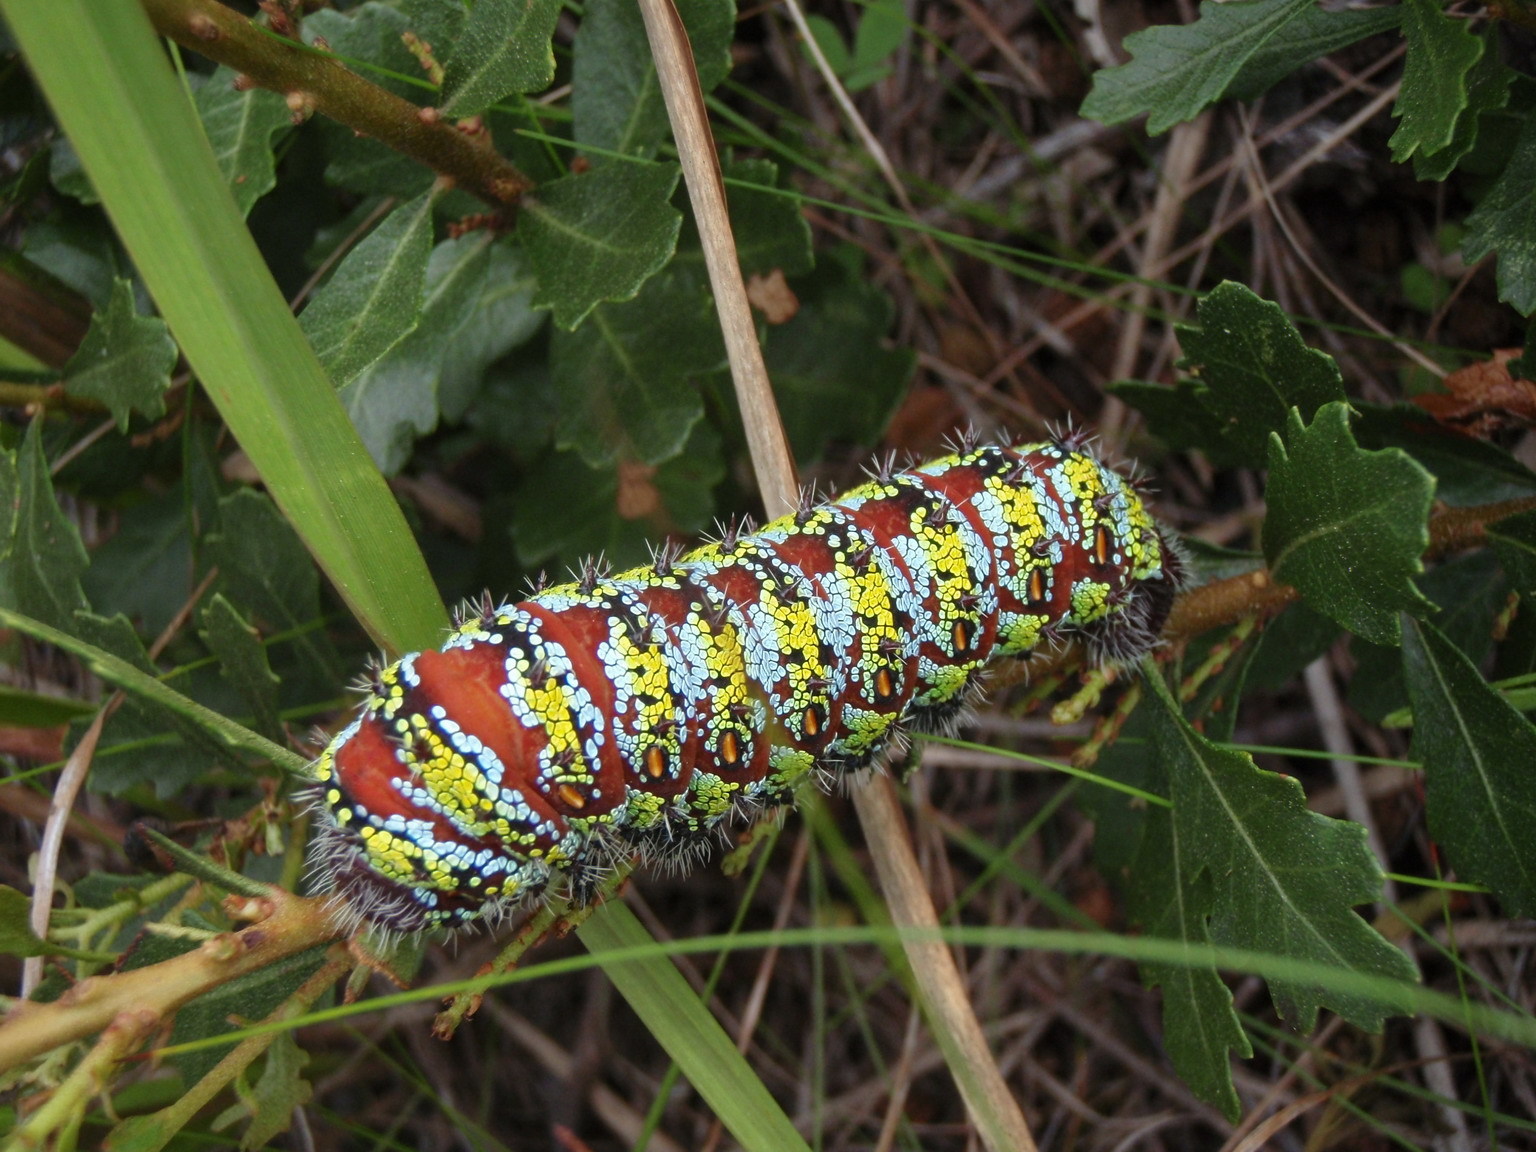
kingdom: Animalia
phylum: Arthropoda
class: Insecta
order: Lepidoptera
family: Saturniidae
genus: Nudaurelia
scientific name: Nudaurelia cytherea
